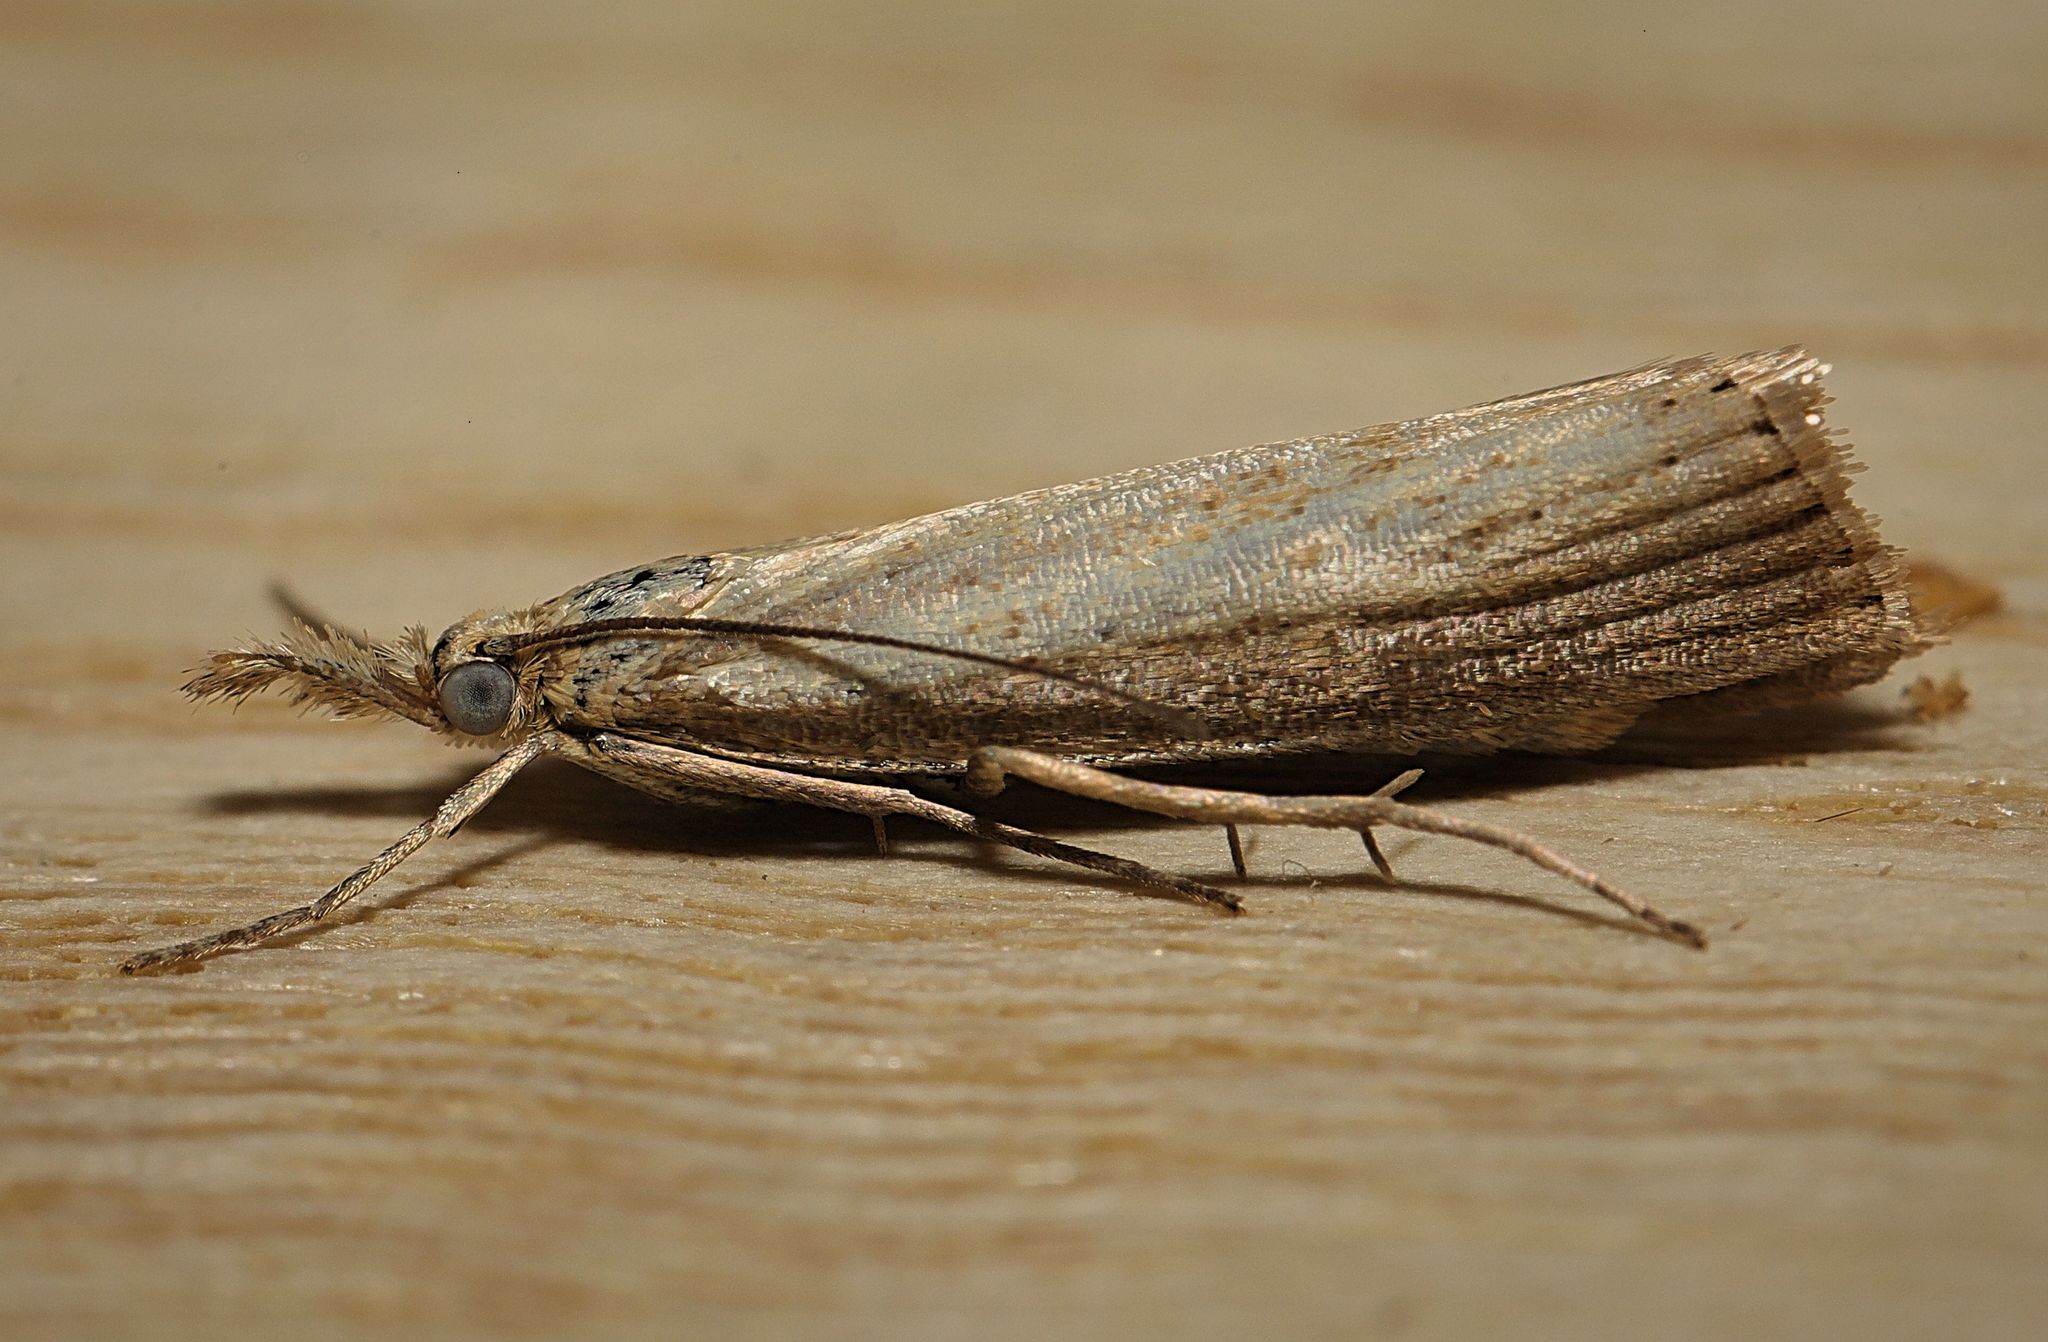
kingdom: Animalia
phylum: Arthropoda
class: Insecta
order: Lepidoptera
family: Crambidae
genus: Agriphila
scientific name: Agriphila straminella
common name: Straw grass-veneer
